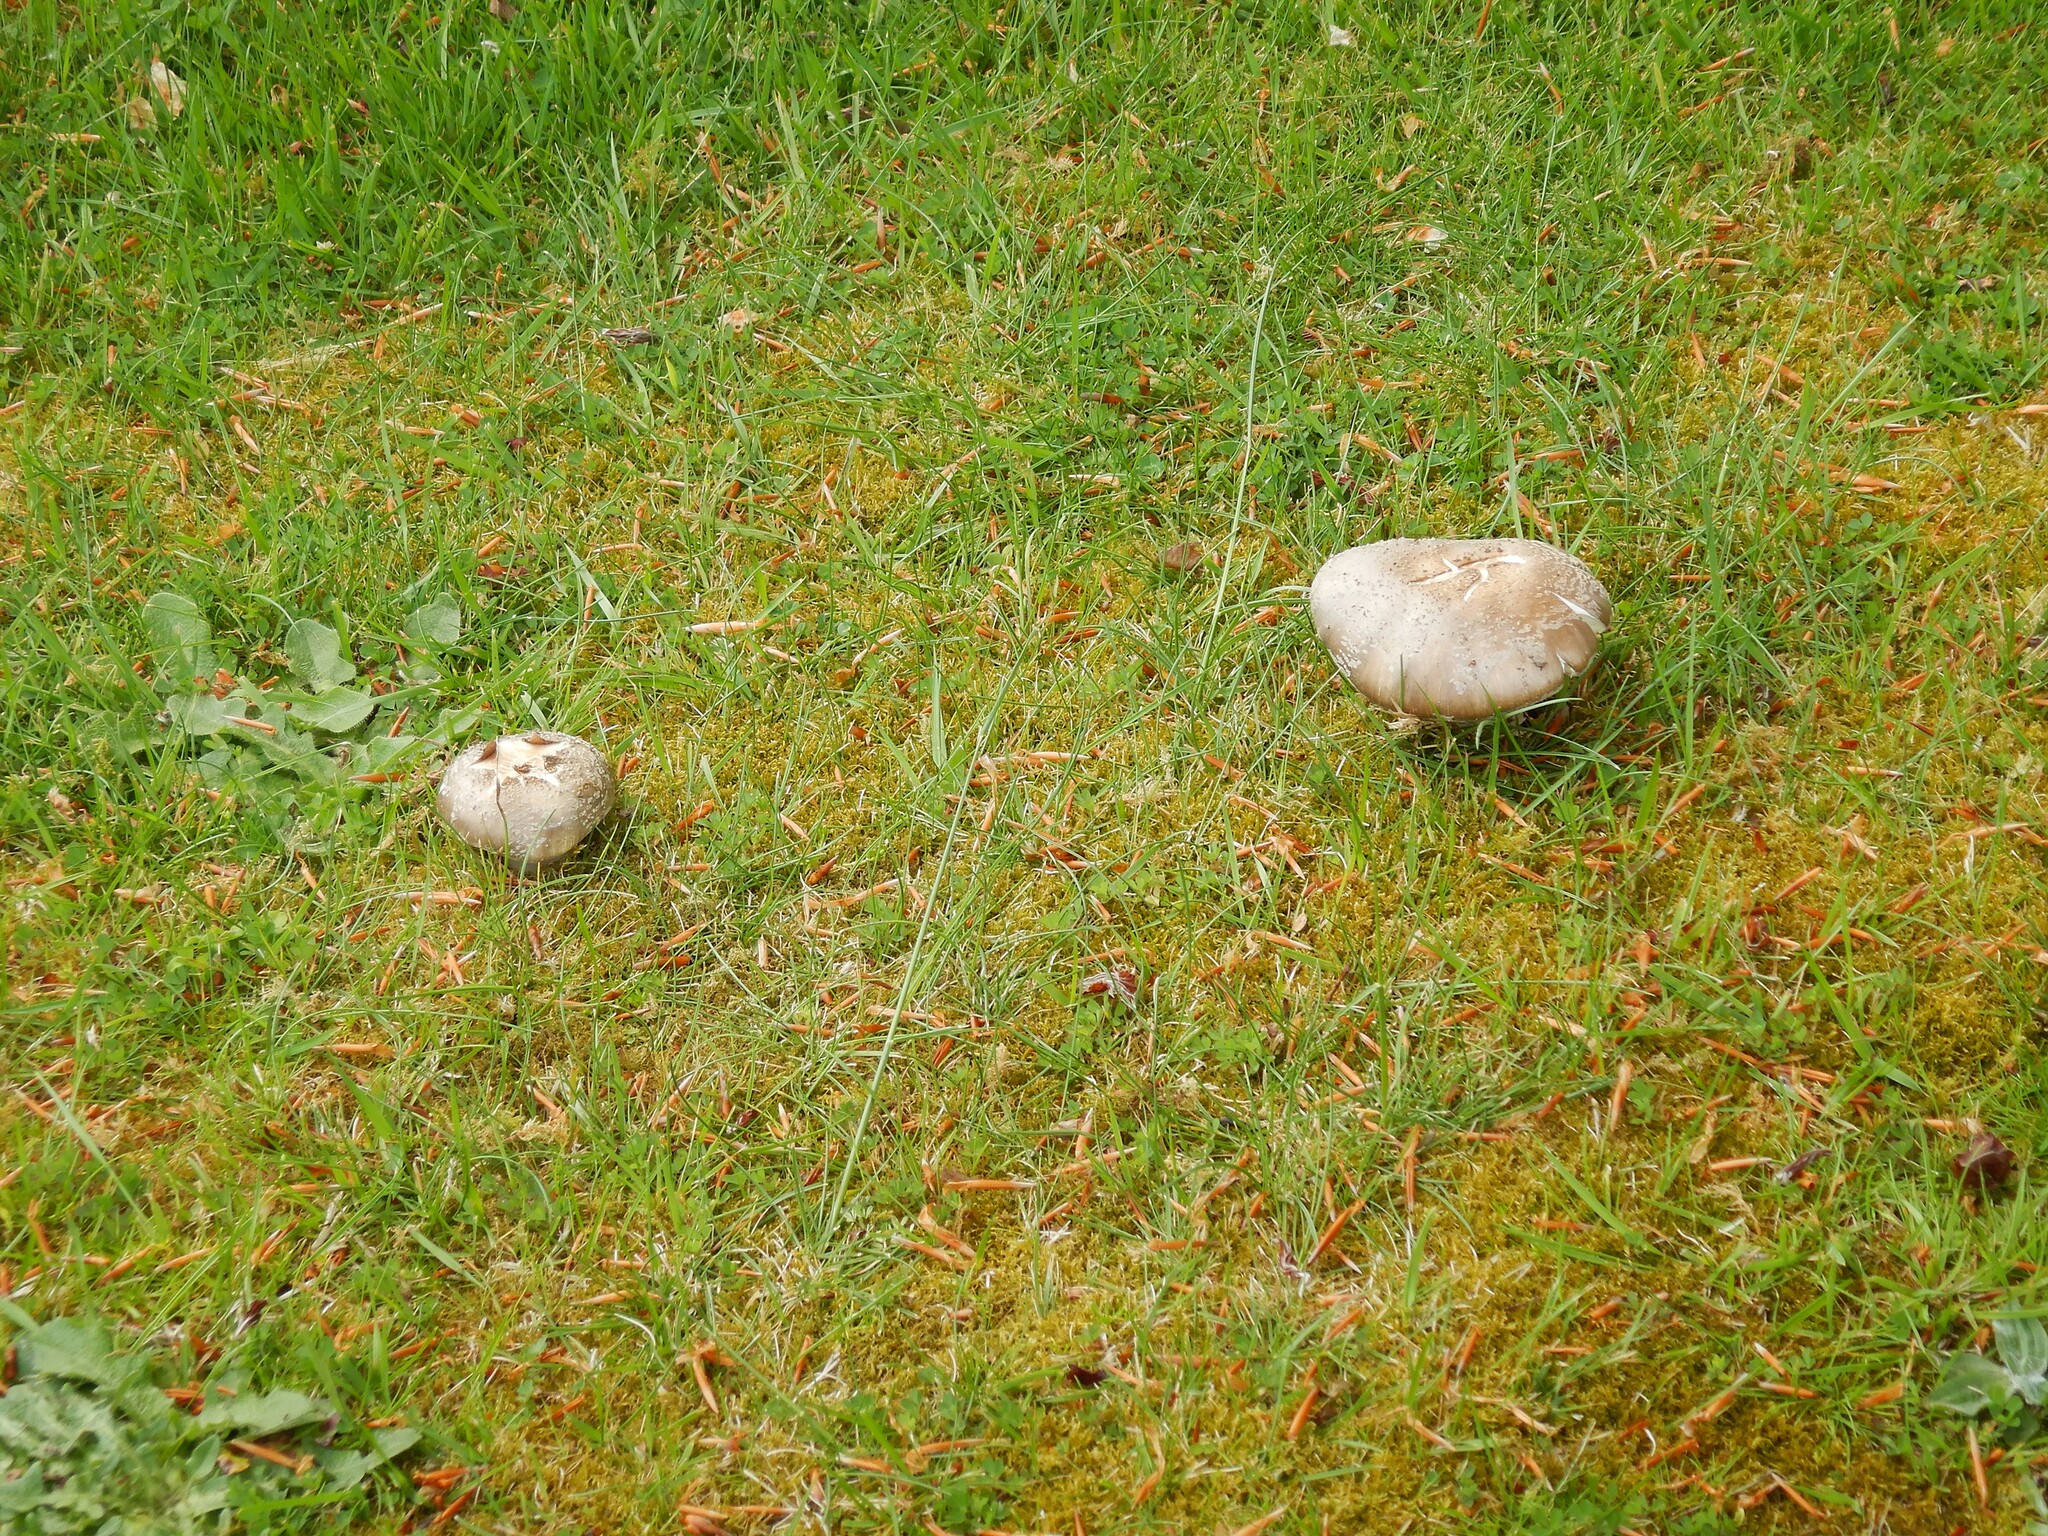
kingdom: Fungi
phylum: Basidiomycota
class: Agaricomycetes
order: Agaricales
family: Amanitaceae
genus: Amanita
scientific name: Amanita excelsa
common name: European false blusher
